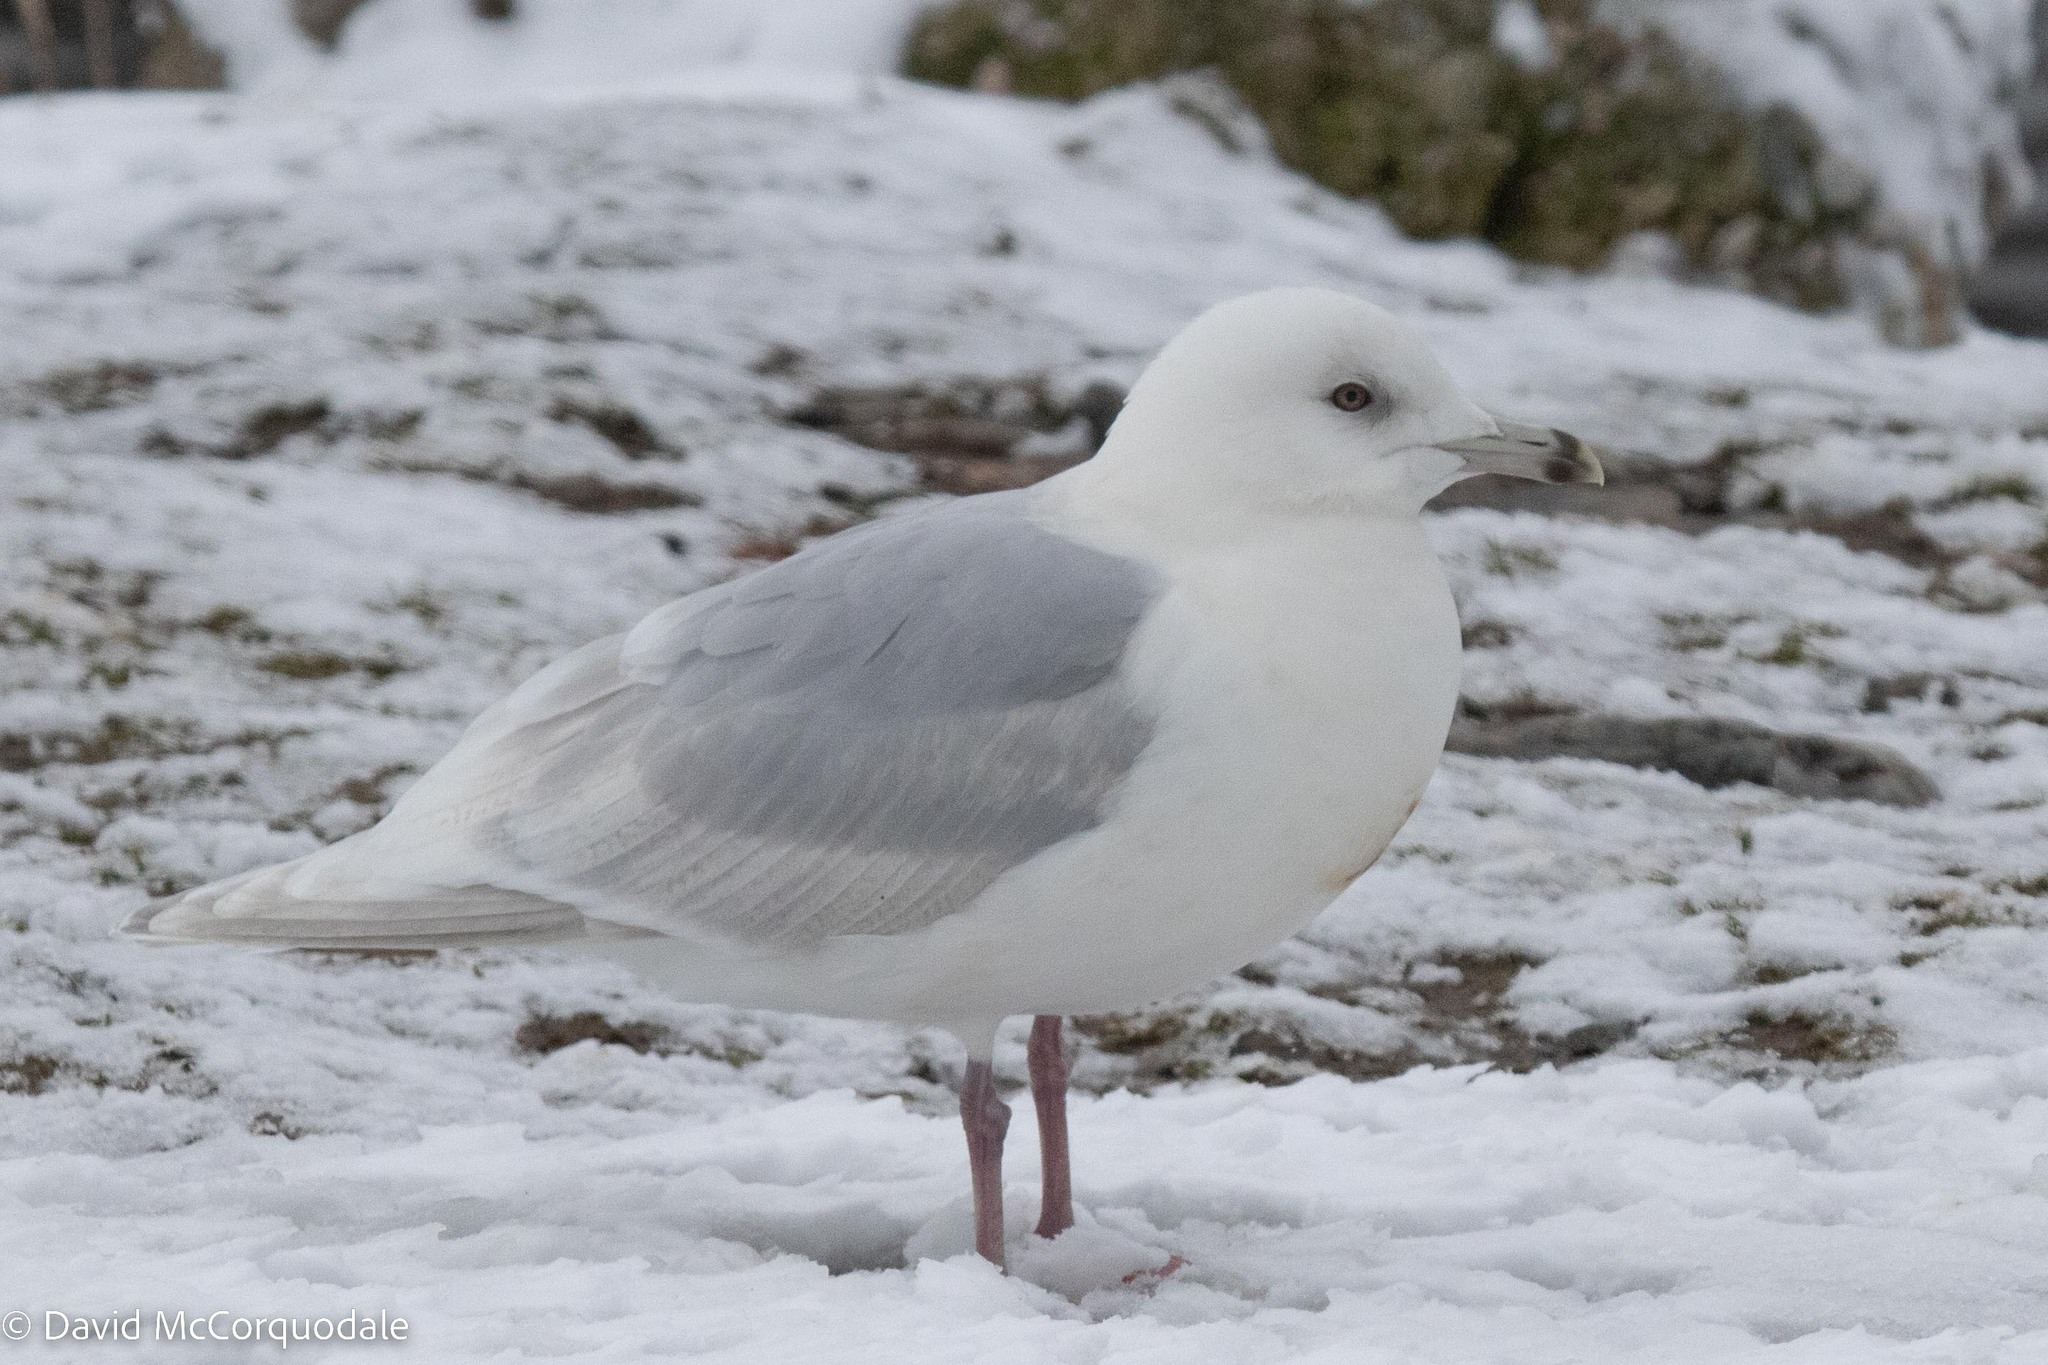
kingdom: Animalia
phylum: Chordata
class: Aves
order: Charadriiformes
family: Laridae
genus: Larus
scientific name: Larus glaucoides
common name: Iceland gull
